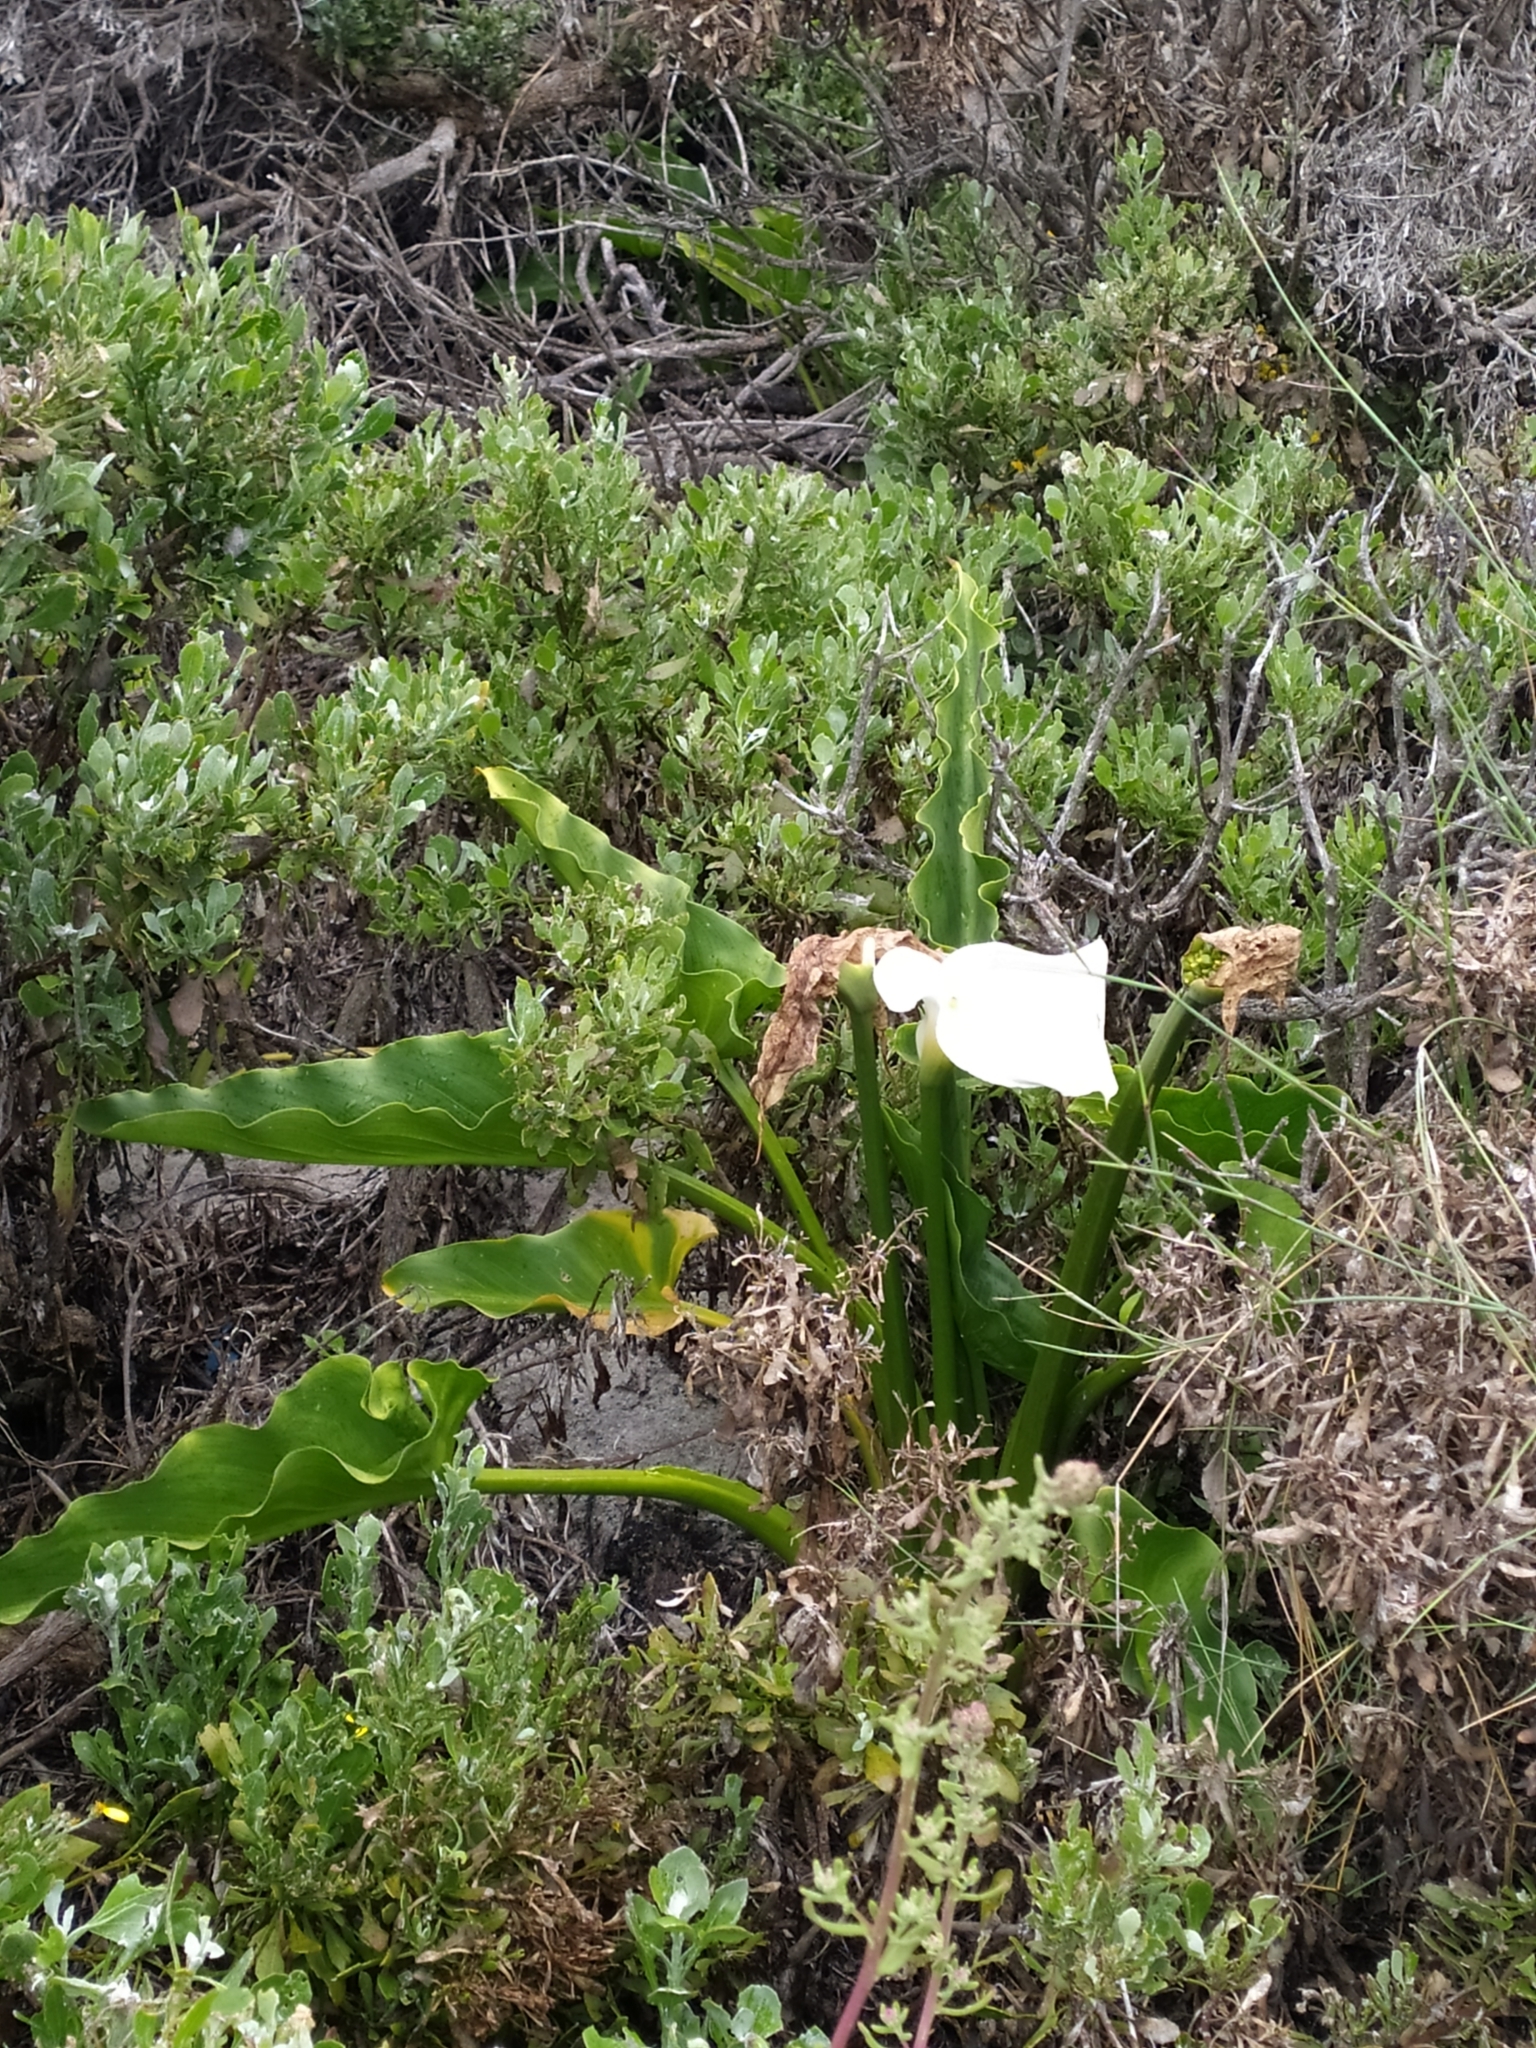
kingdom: Plantae
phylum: Tracheophyta
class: Liliopsida
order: Alismatales
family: Araceae
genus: Zantedeschia
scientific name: Zantedeschia aethiopica
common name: Altar-lily
